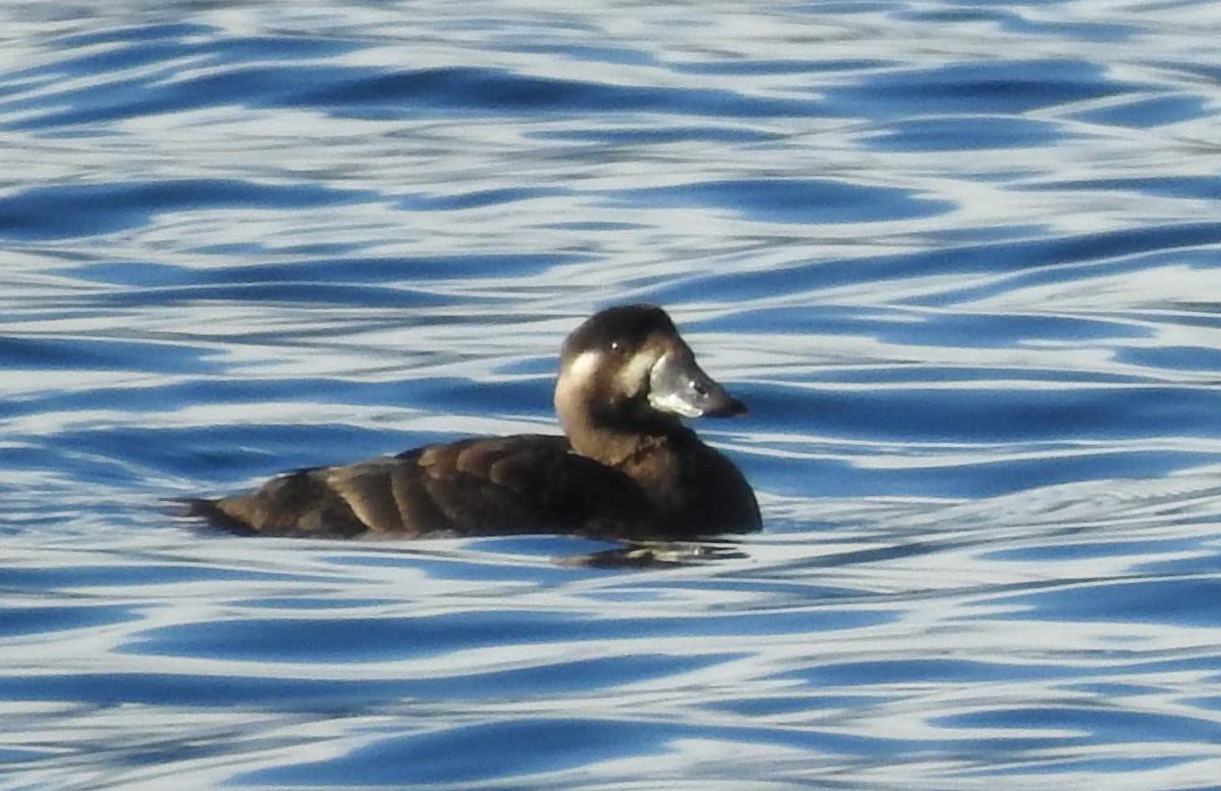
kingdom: Animalia
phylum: Chordata
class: Aves
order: Anseriformes
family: Anatidae
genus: Melanitta
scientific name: Melanitta deglandi
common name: White-winged scoter
